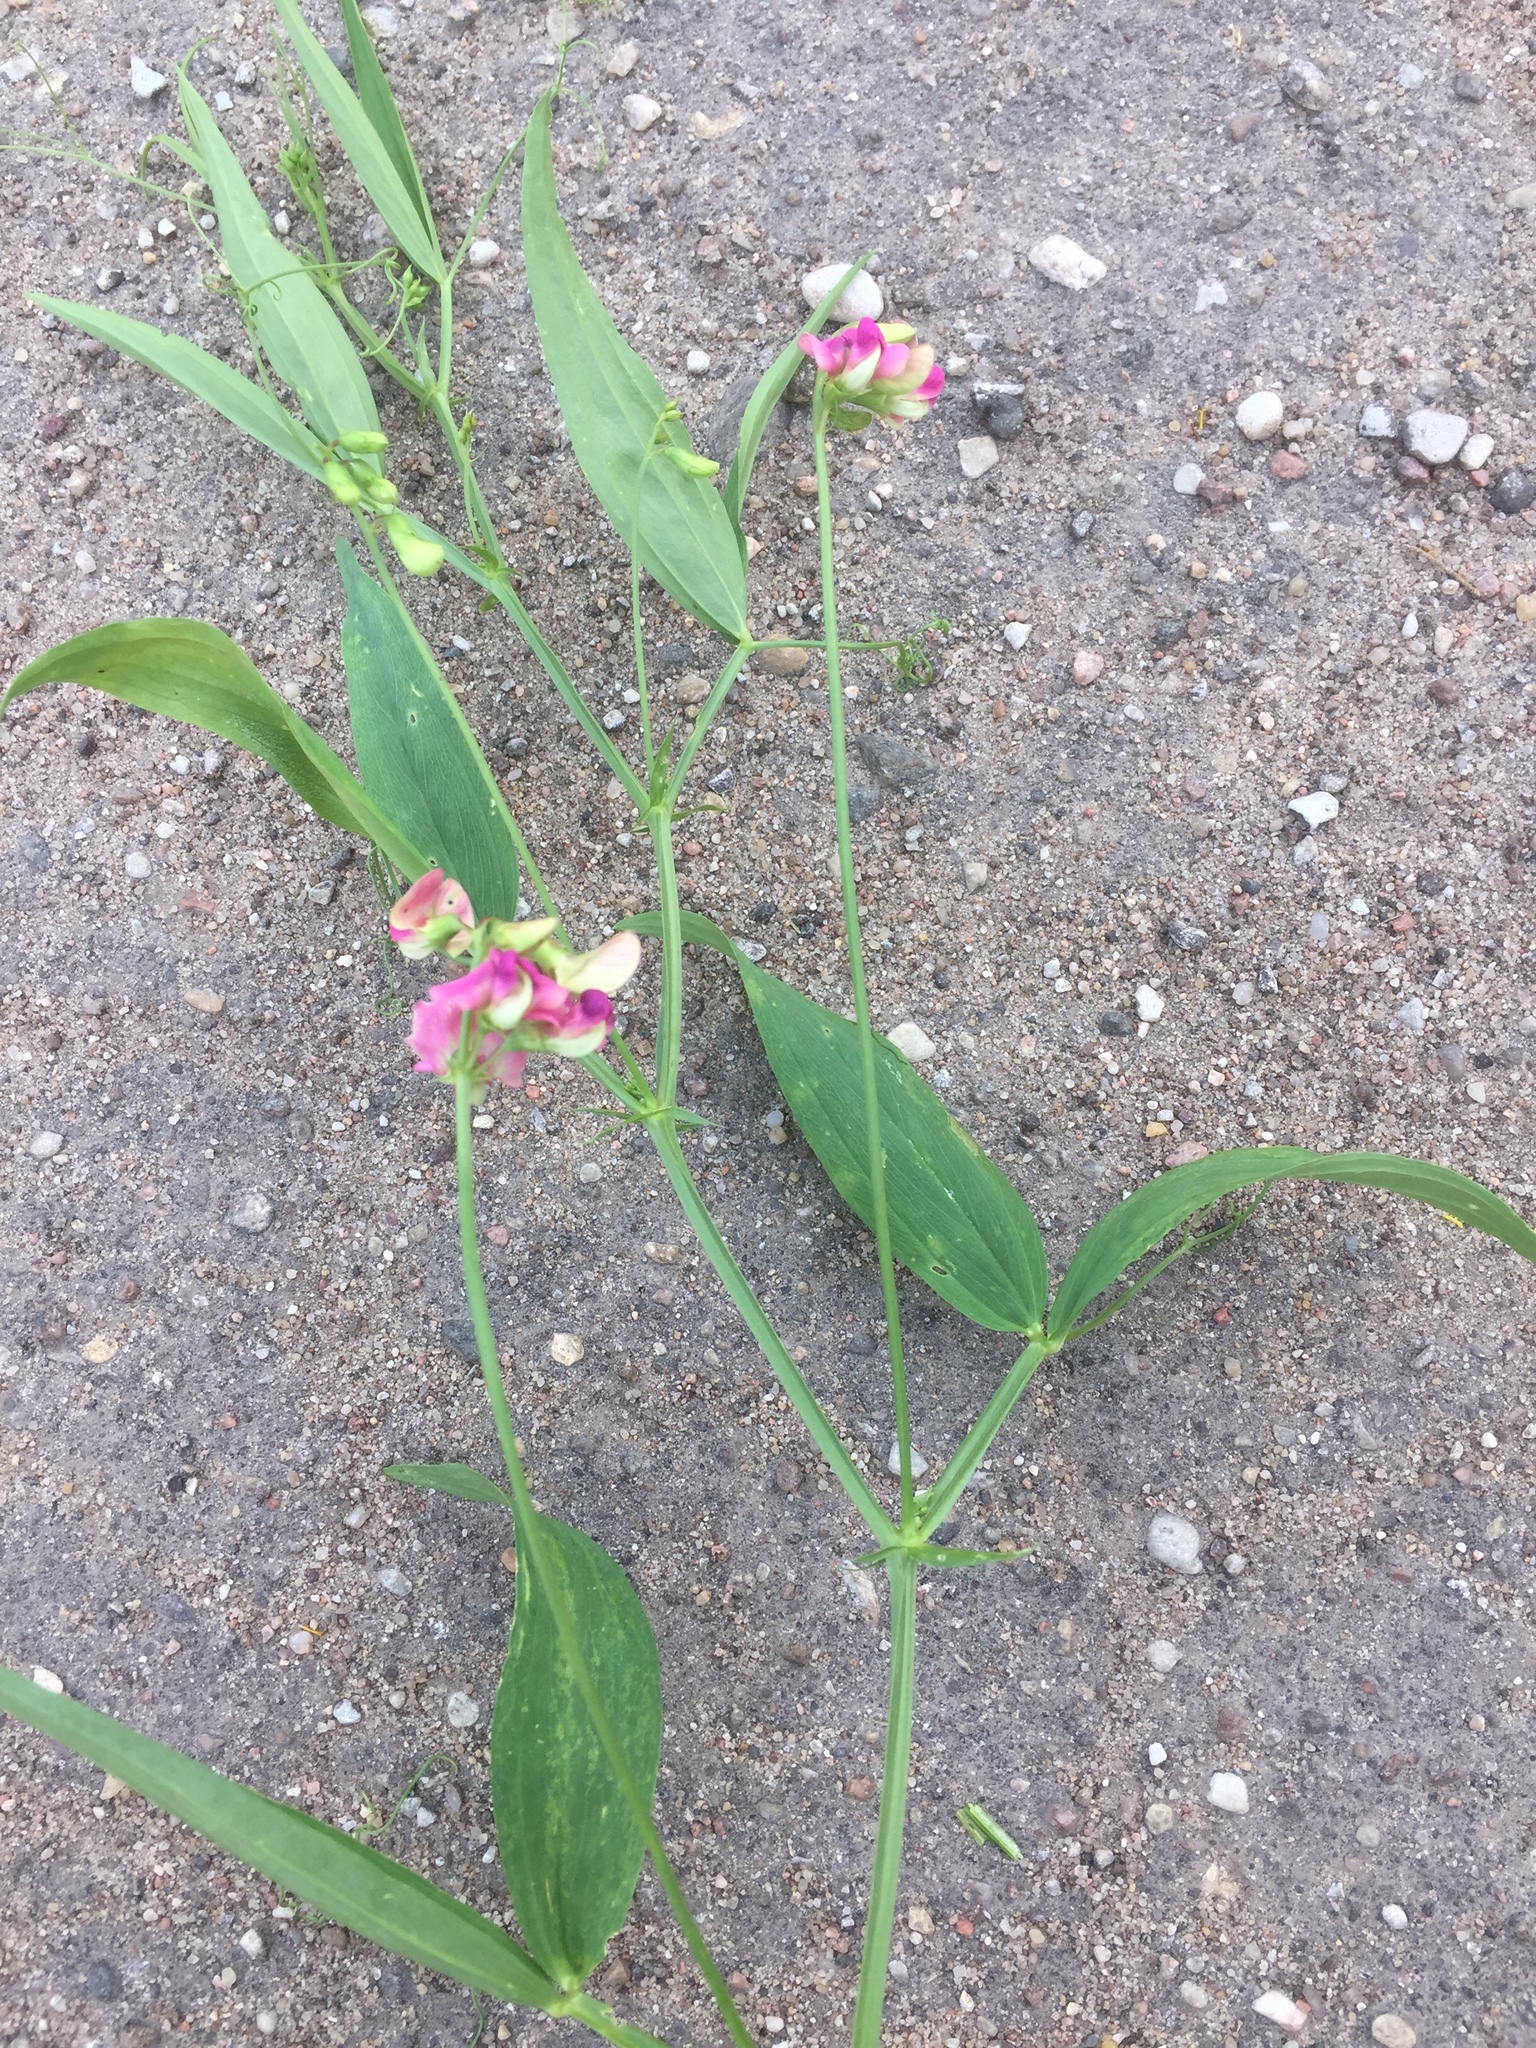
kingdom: Plantae
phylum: Tracheophyta
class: Magnoliopsida
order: Fabales
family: Fabaceae
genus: Lathyrus
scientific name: Lathyrus sylvestris
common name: Flat pea
